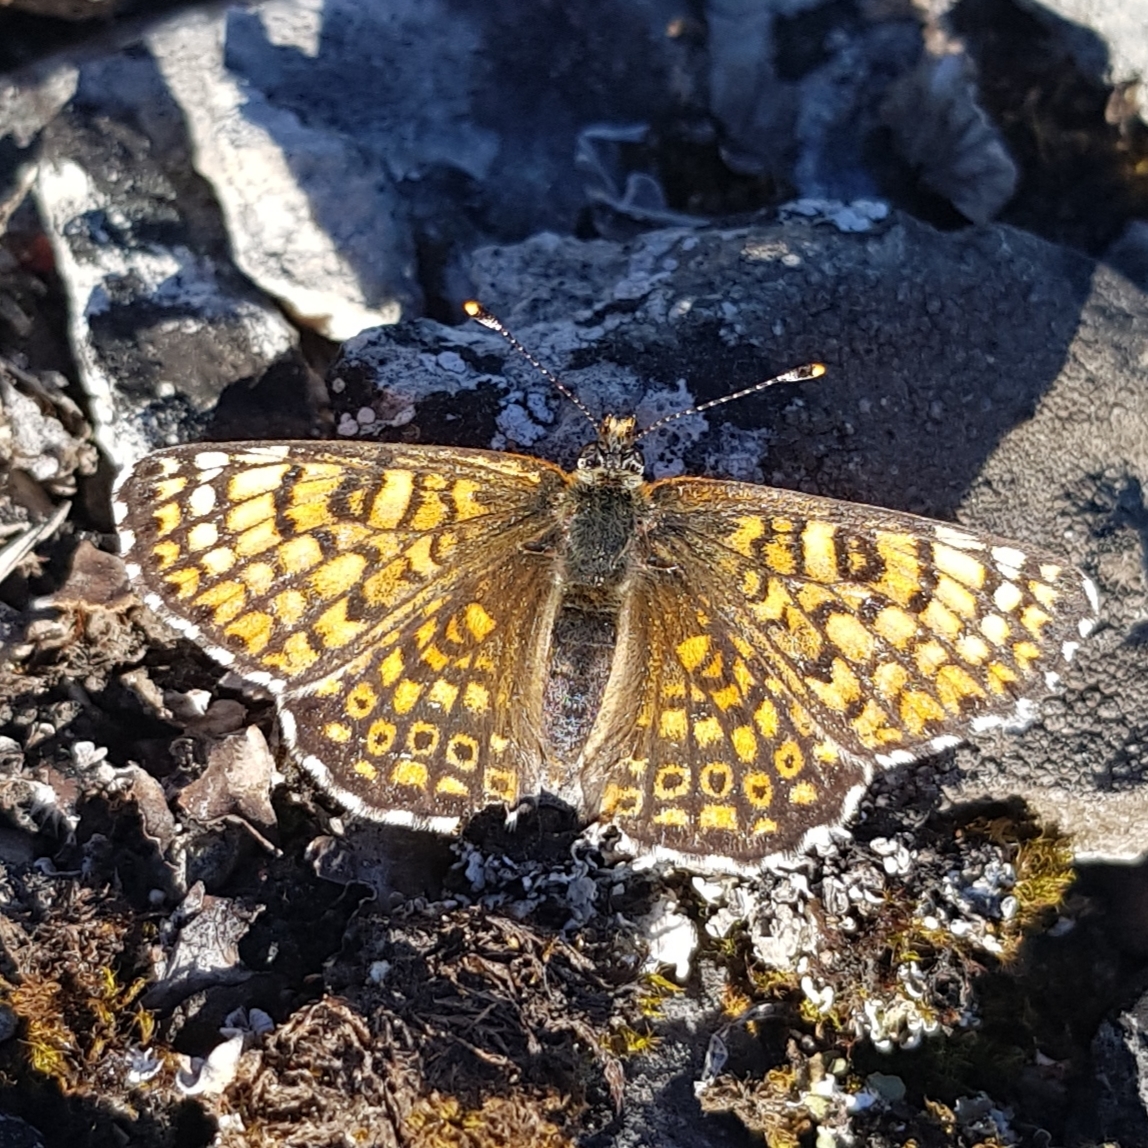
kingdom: Animalia
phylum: Arthropoda
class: Insecta
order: Lepidoptera
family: Nymphalidae
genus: Melitaea
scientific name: Melitaea cinxia
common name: Glanville fritillary
